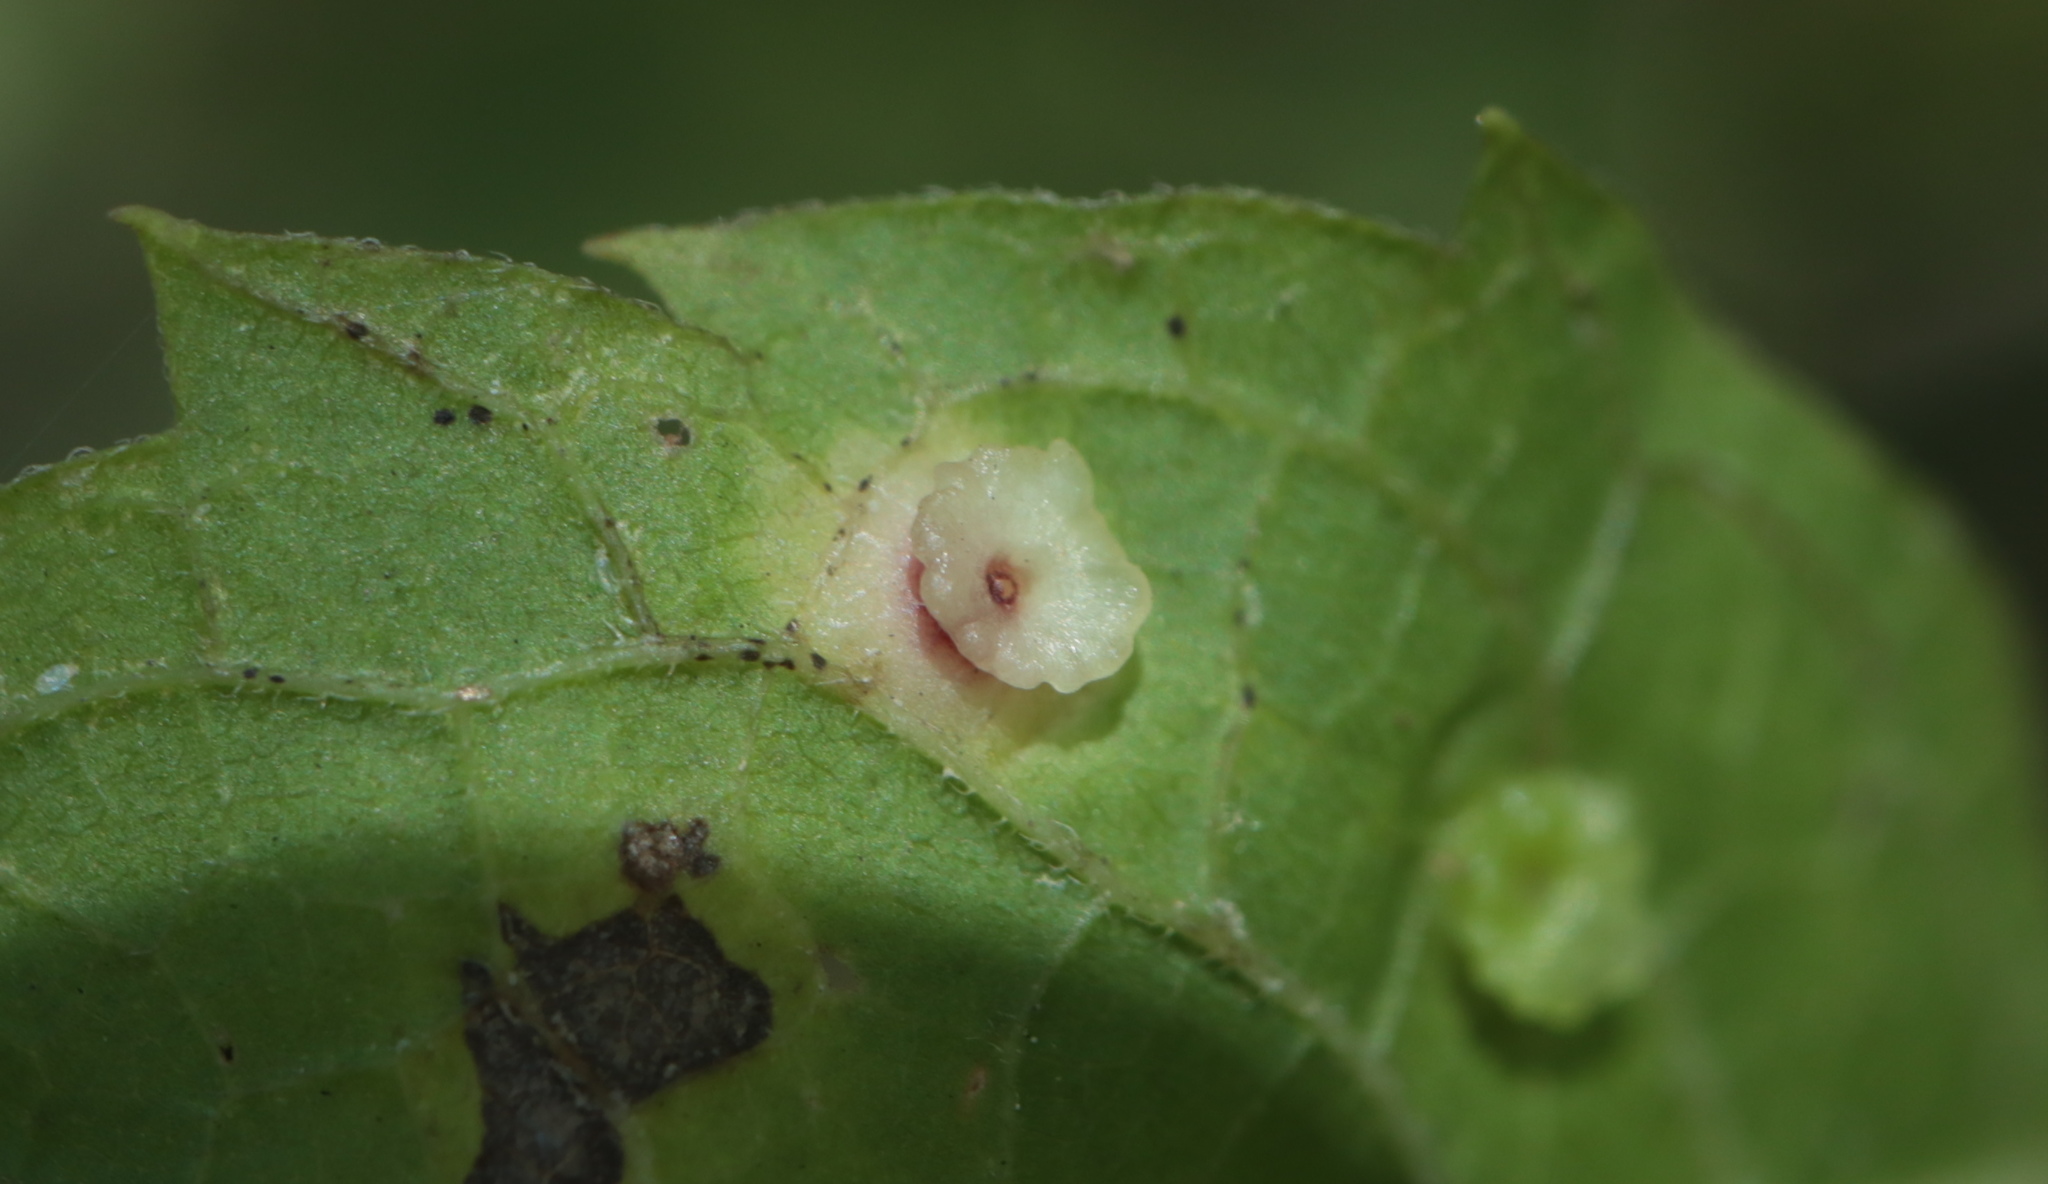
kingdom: Animalia
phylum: Arthropoda
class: Insecta
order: Hemiptera
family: Aphalaridae
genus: Pachypsylla
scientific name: Pachypsylla celtidisasterisca
